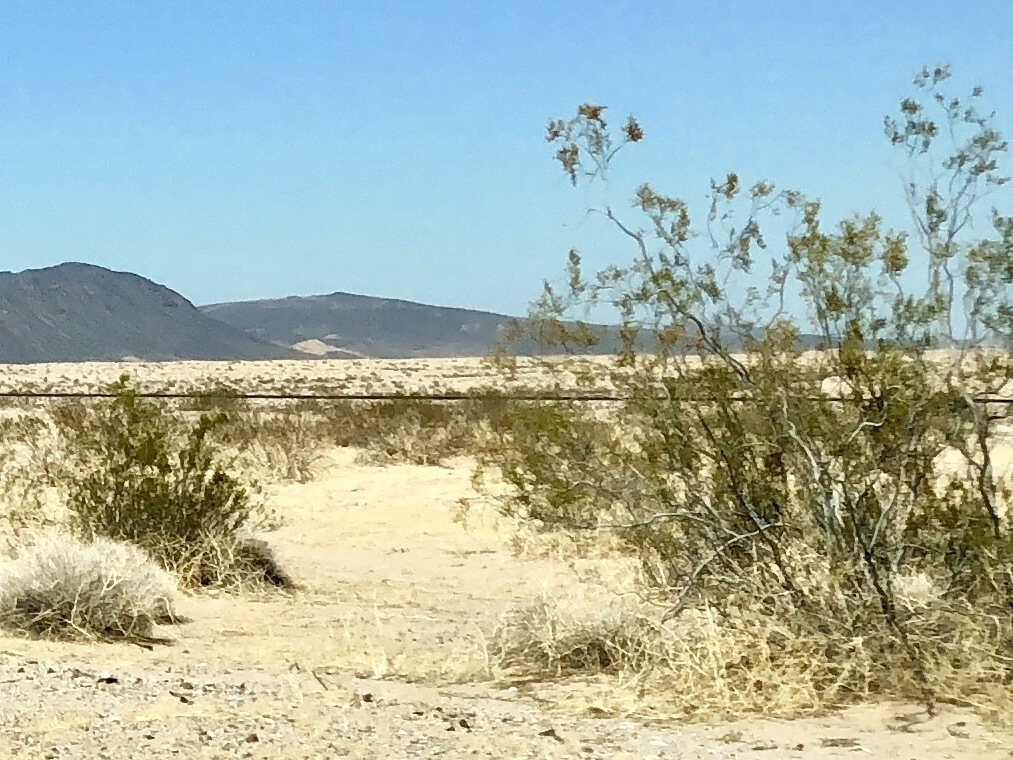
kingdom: Plantae
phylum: Tracheophyta
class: Magnoliopsida
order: Zygophyllales
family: Zygophyllaceae
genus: Larrea
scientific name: Larrea tridentata
